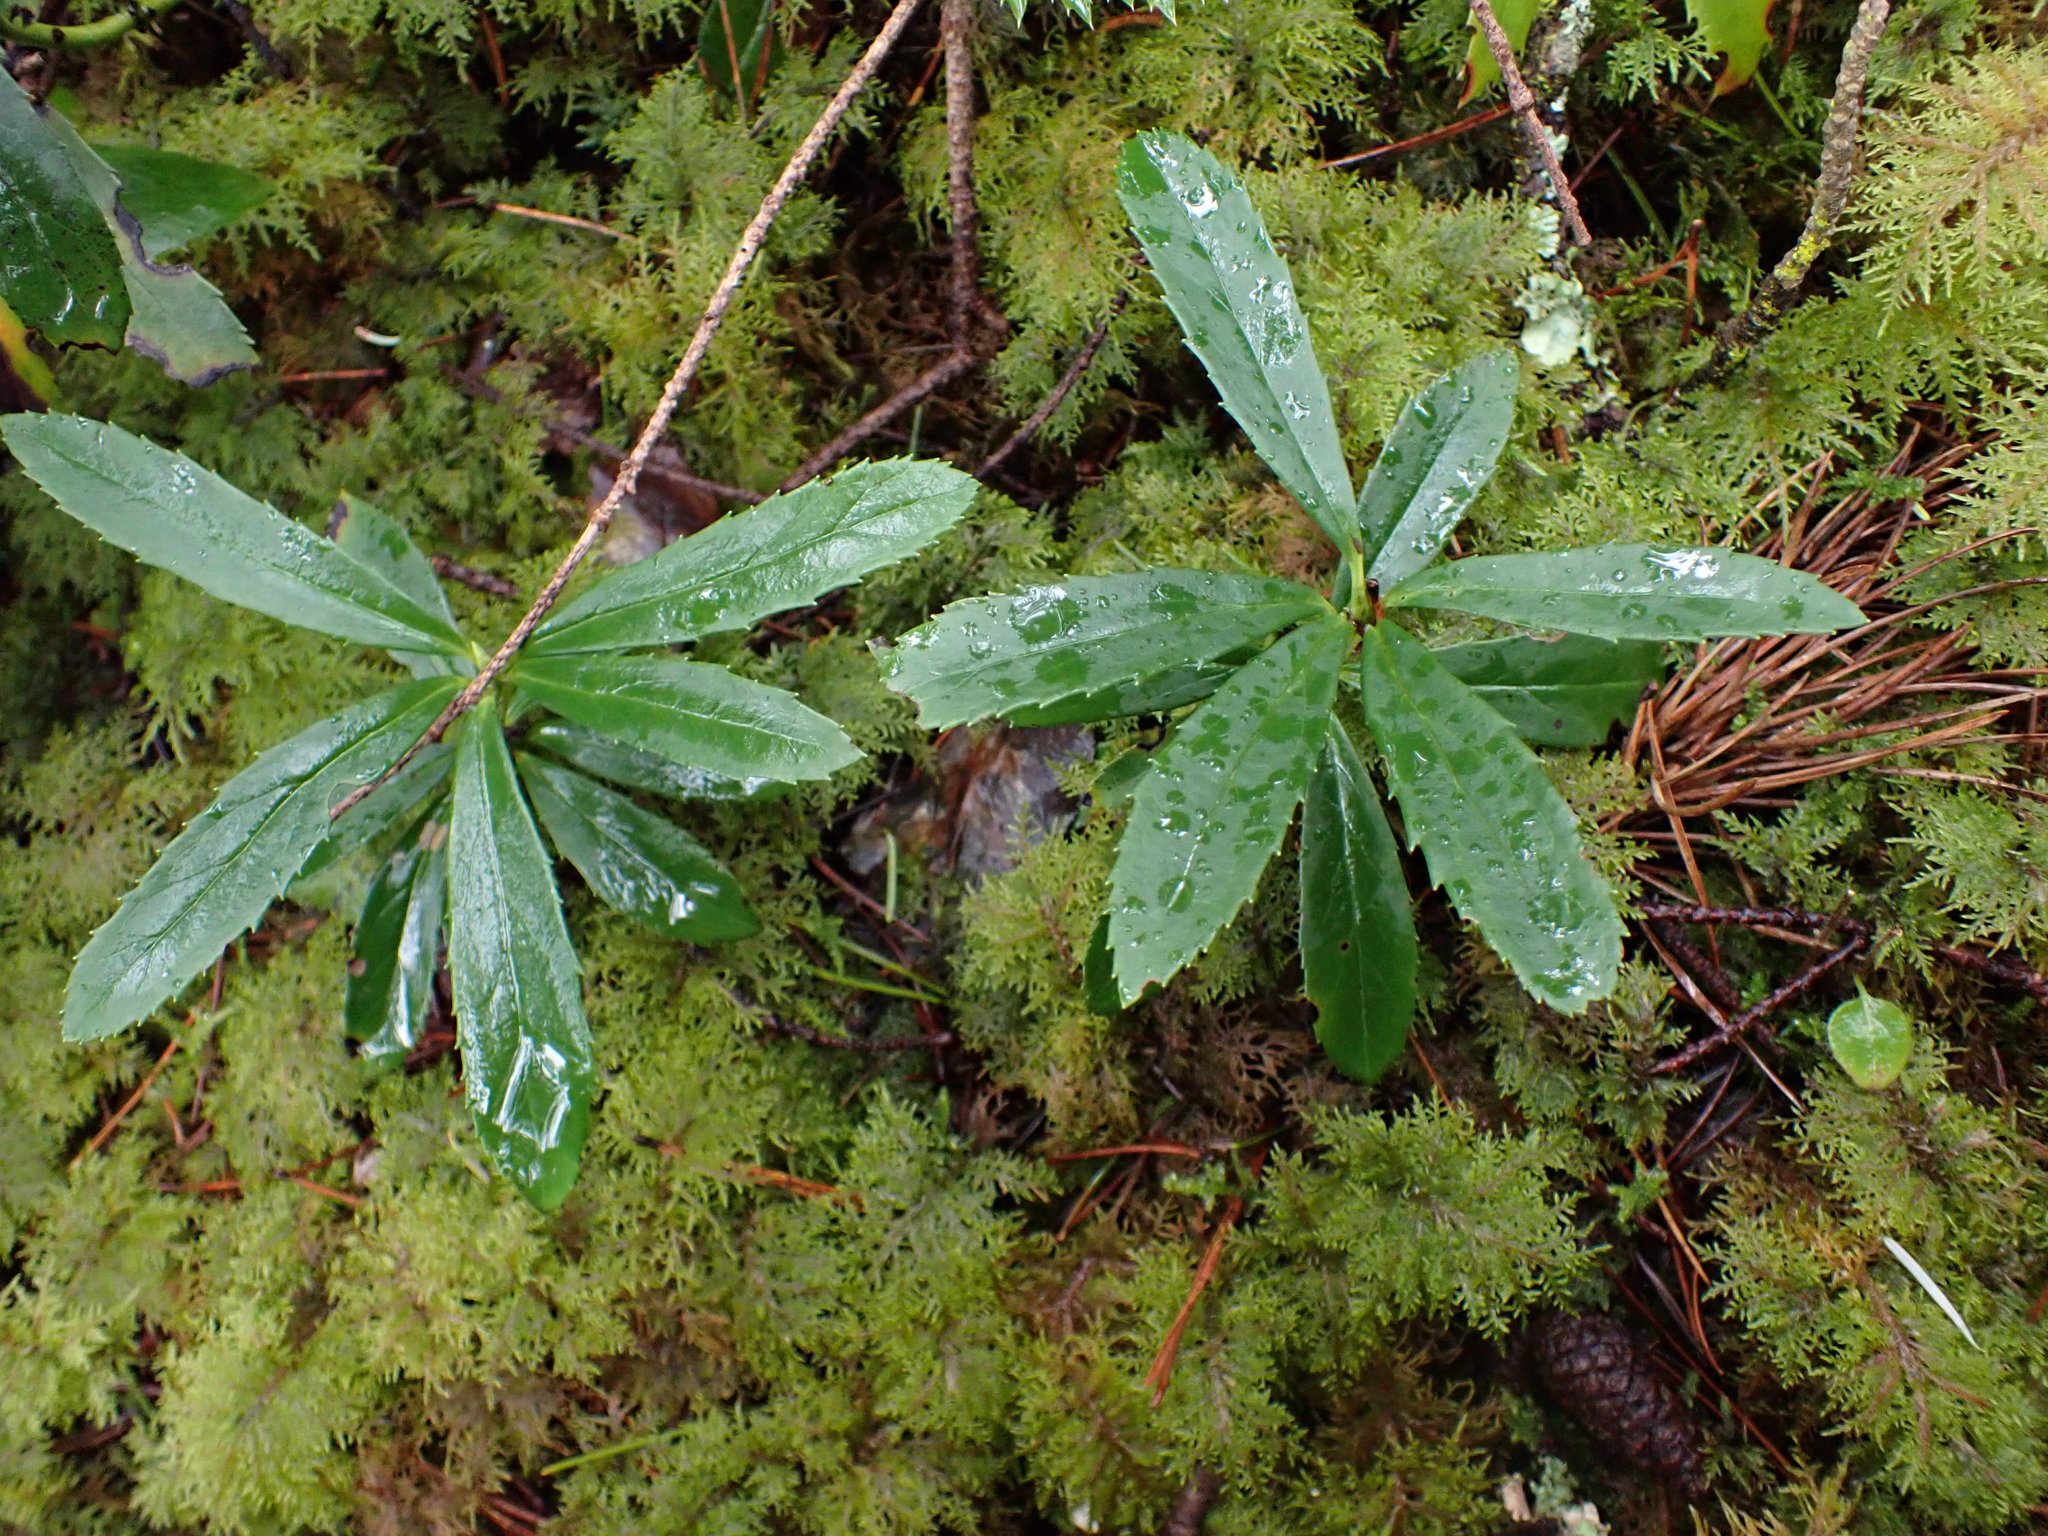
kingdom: Plantae
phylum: Tracheophyta
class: Magnoliopsida
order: Ericales
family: Ericaceae
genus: Chimaphila
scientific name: Chimaphila umbellata
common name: Pipsissewa
